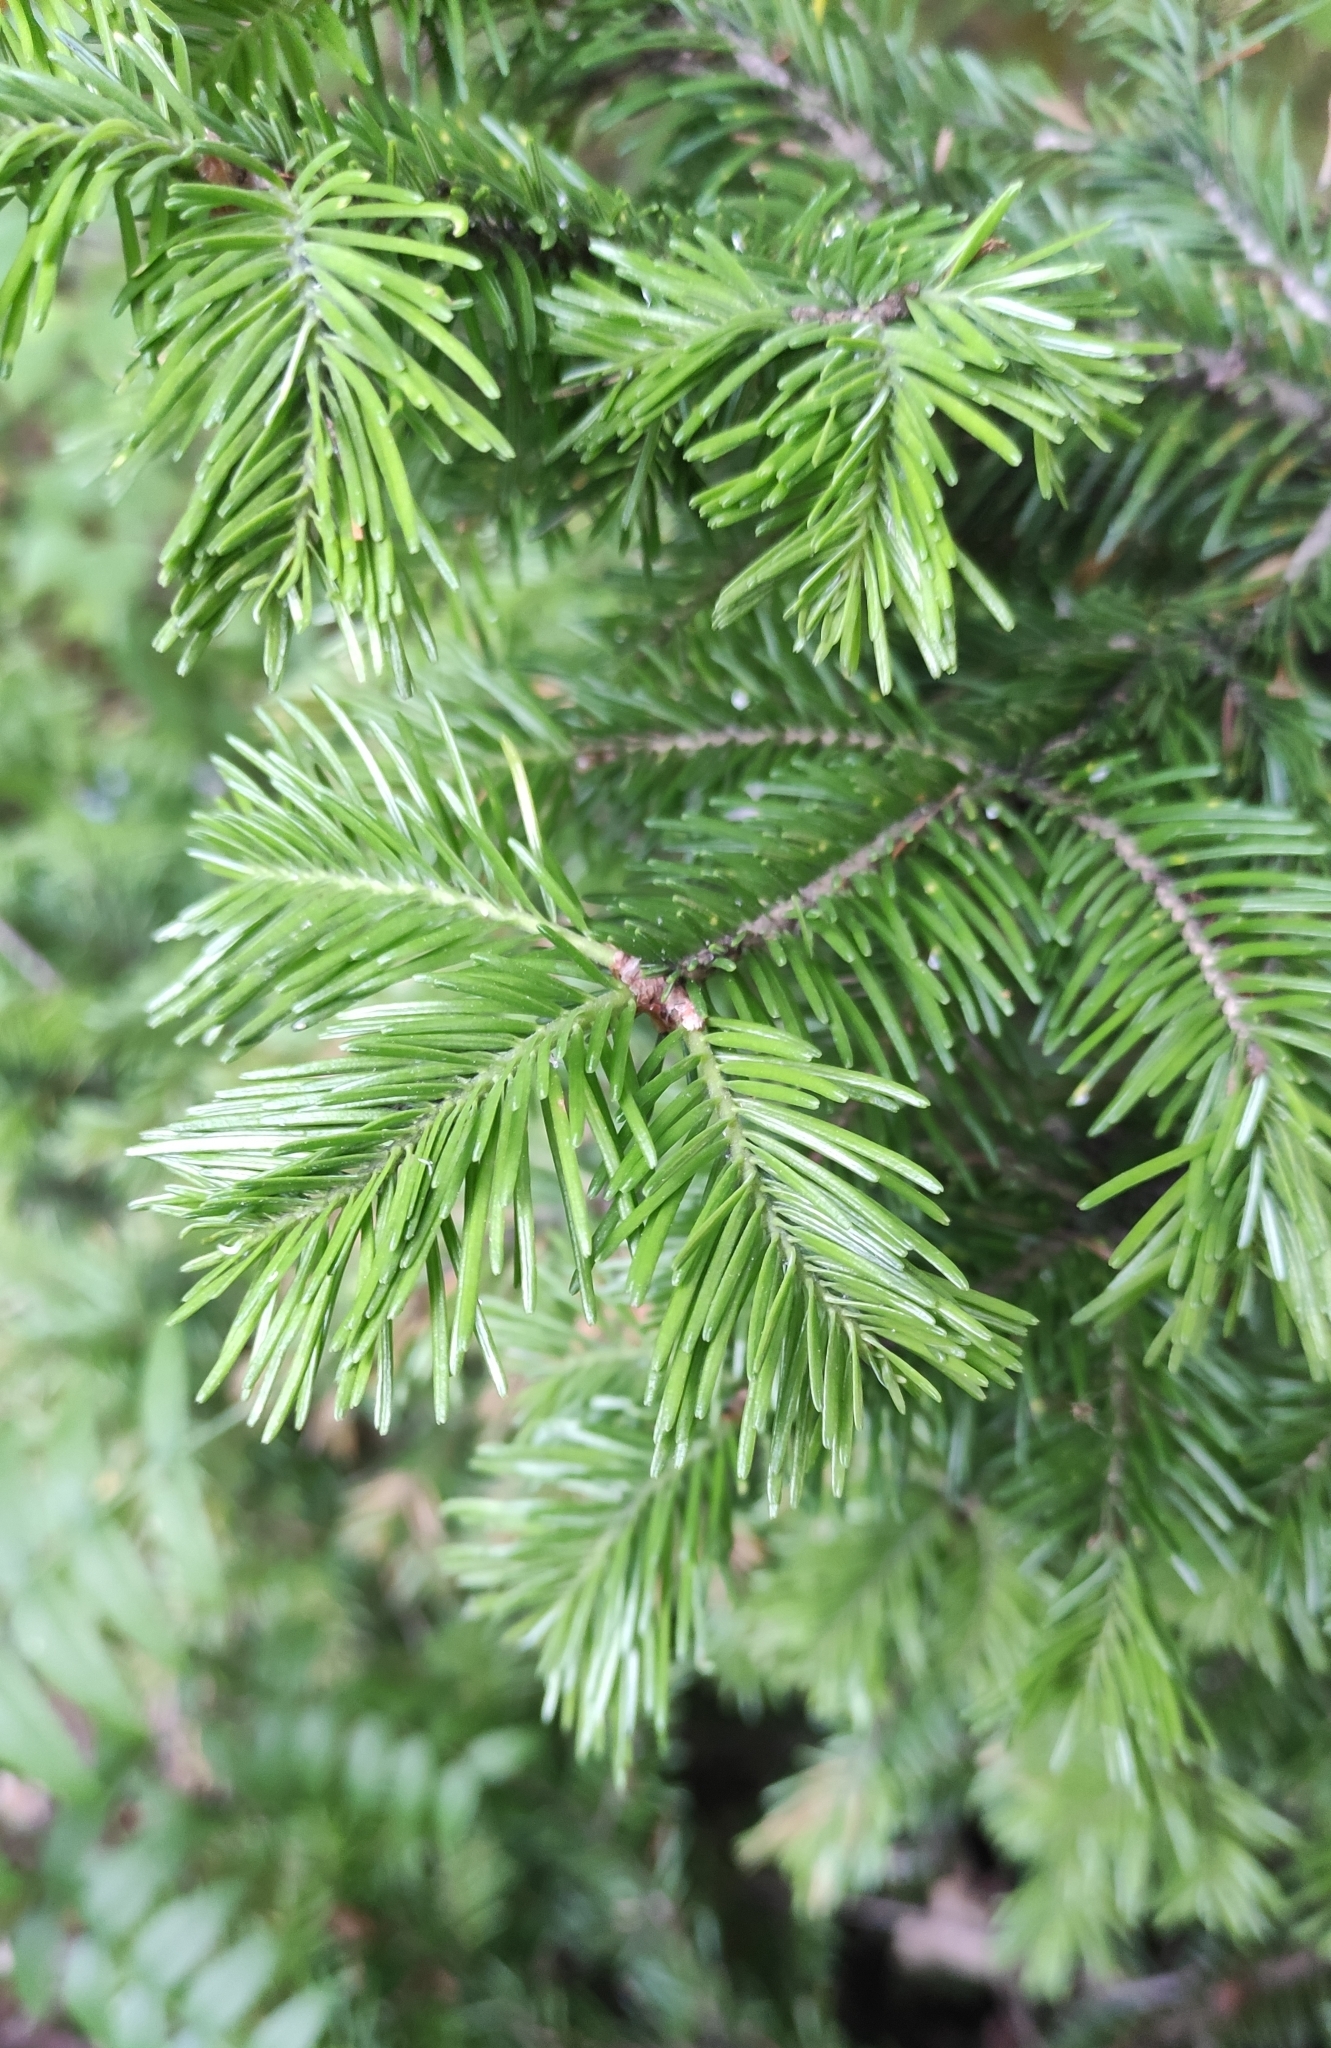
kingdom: Plantae
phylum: Tracheophyta
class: Pinopsida
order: Pinales
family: Pinaceae
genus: Abies
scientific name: Abies sibirica
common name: Siberian fir
